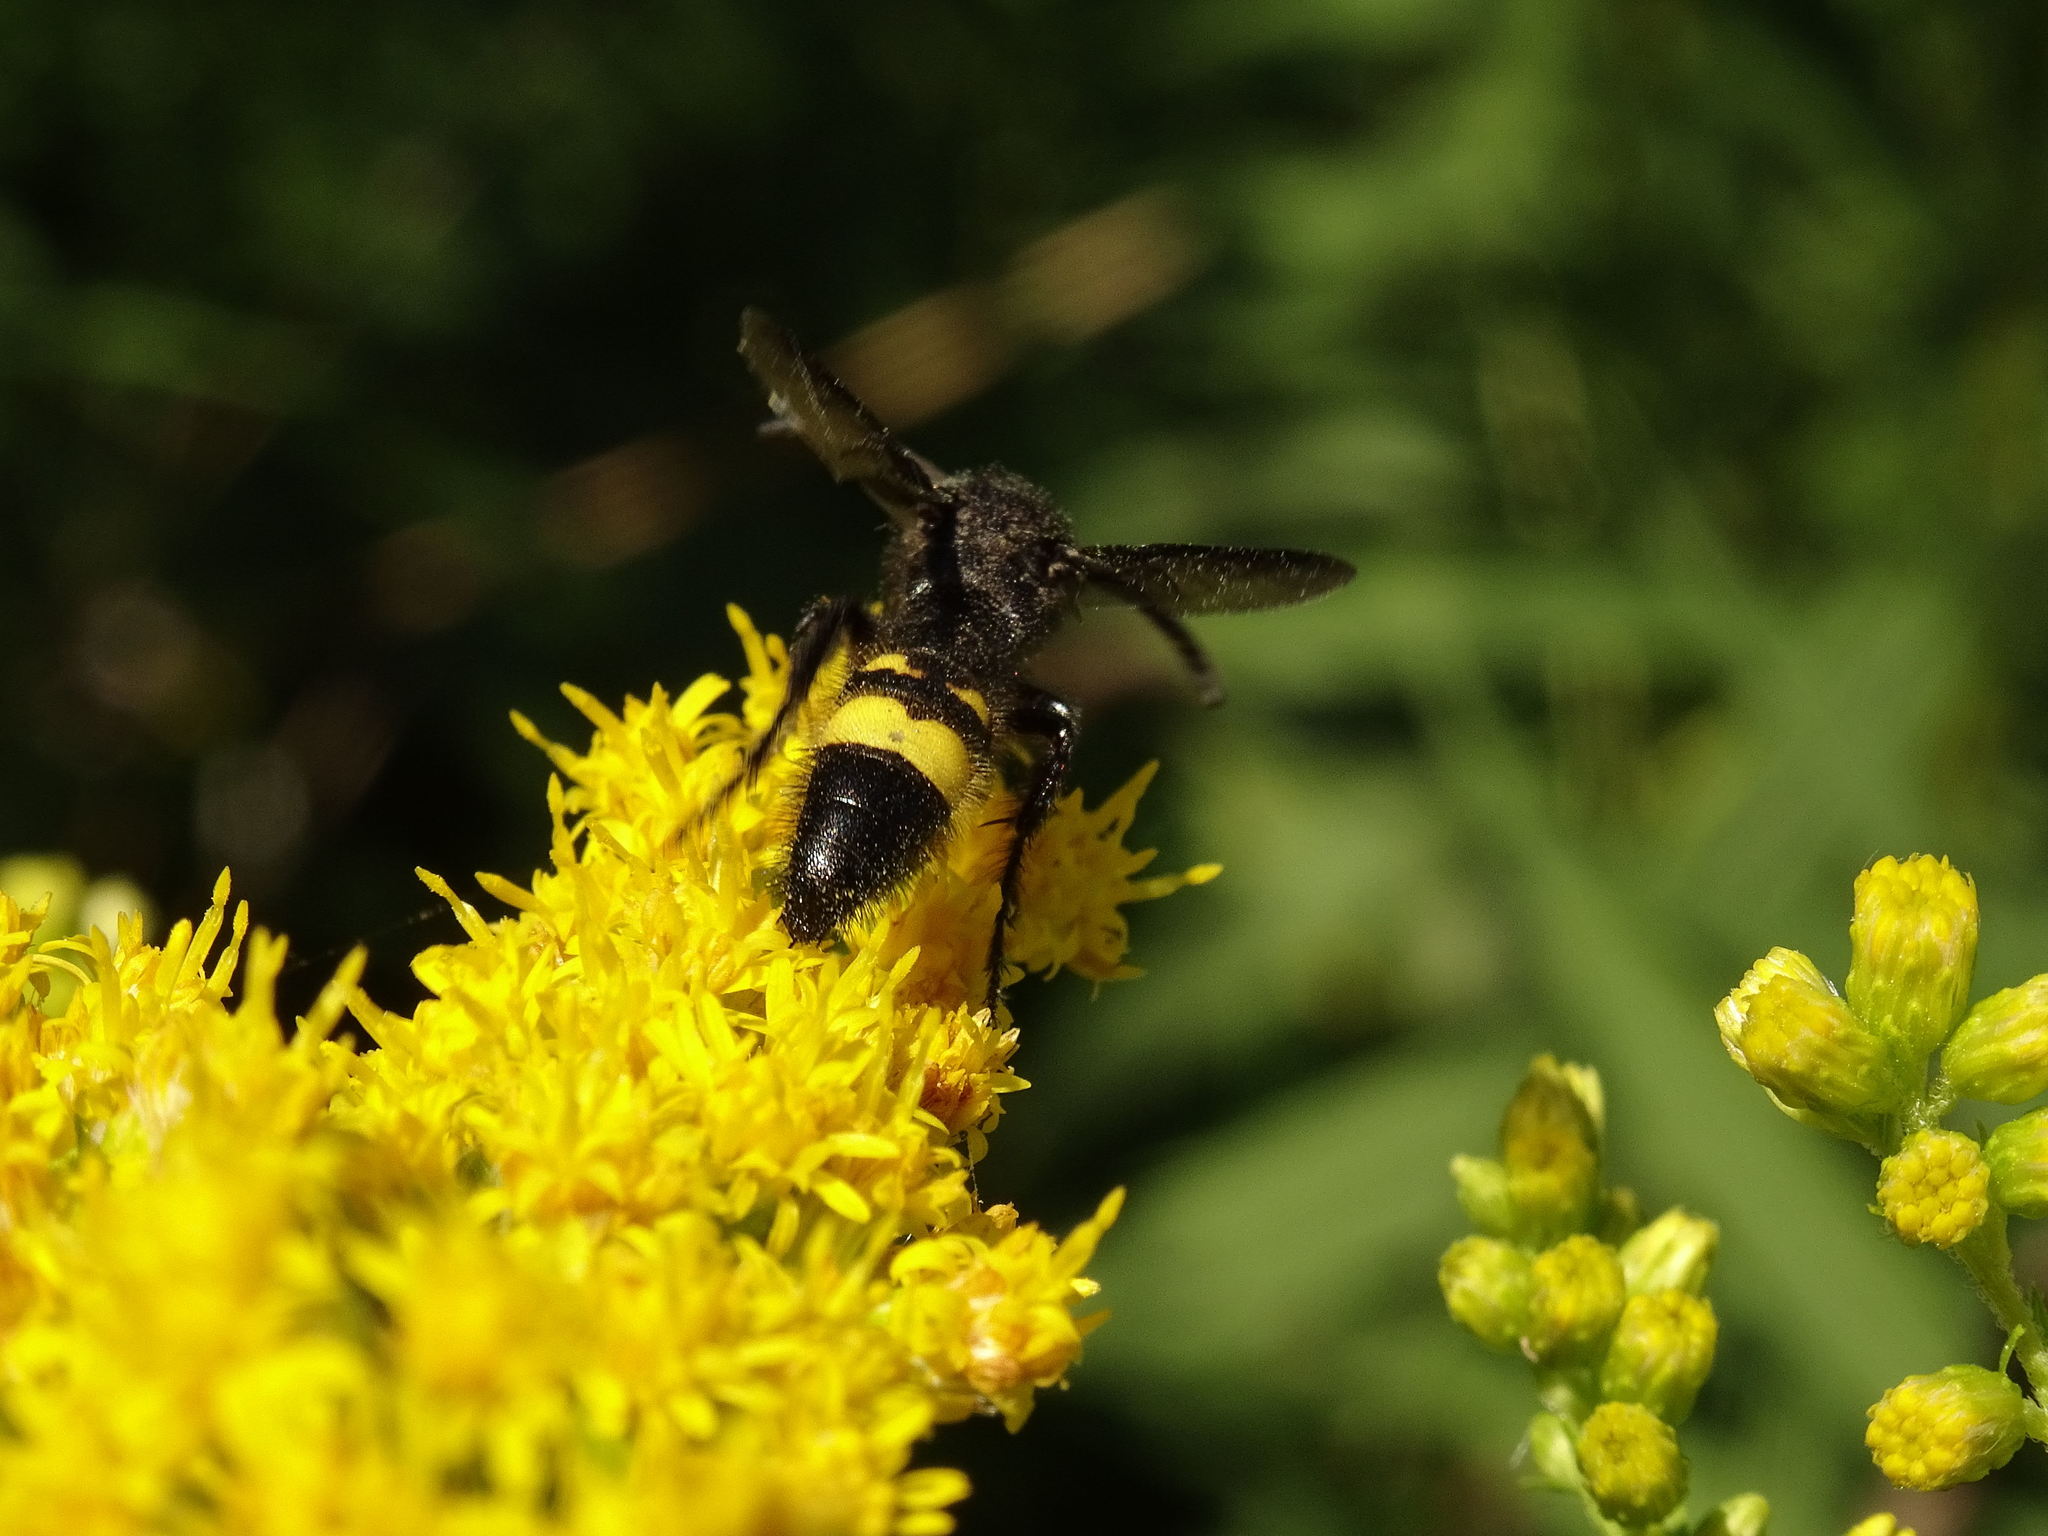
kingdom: Animalia
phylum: Arthropoda
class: Insecta
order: Hymenoptera
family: Scoliidae
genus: Scolia
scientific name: Scolia hirta
